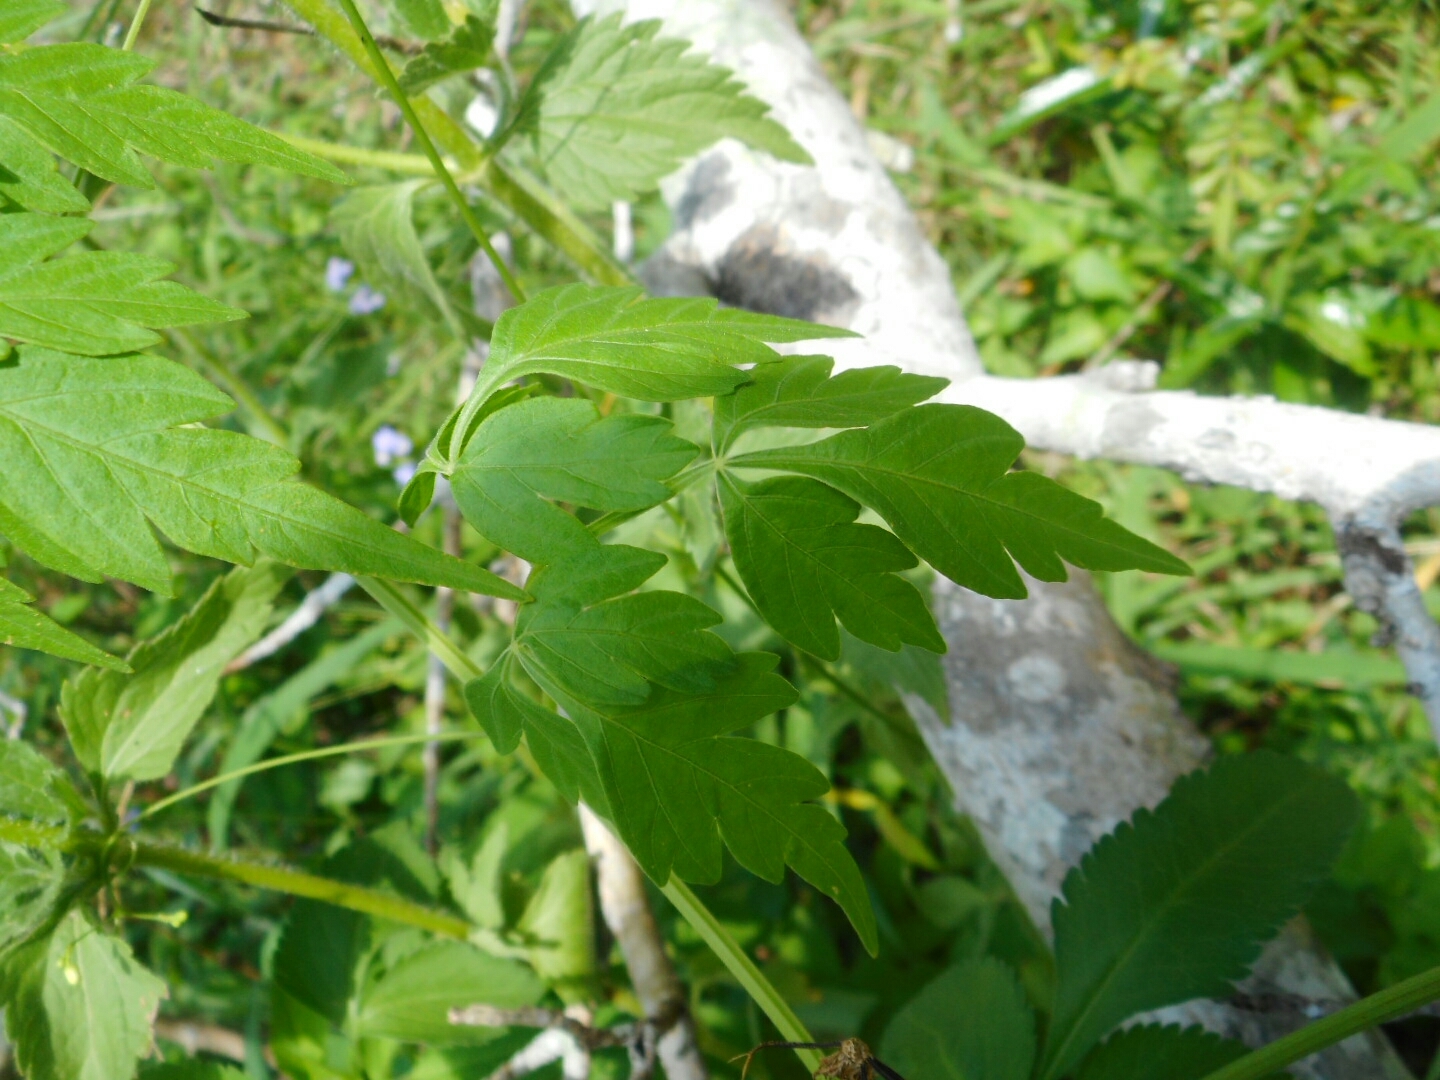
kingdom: Plantae
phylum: Tracheophyta
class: Magnoliopsida
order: Sapindales
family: Sapindaceae
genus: Cardiospermum
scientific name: Cardiospermum halicacabum
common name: Balloon vine
